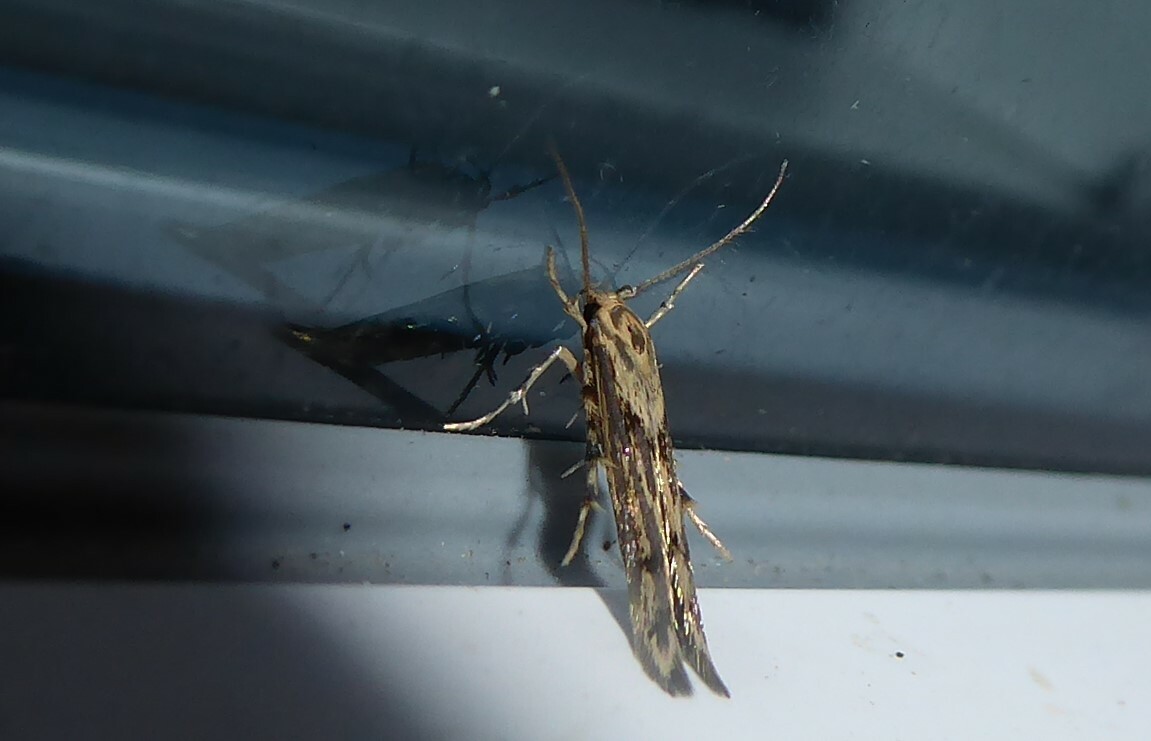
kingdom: Animalia
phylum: Arthropoda
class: Insecta
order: Lepidoptera
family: Stathmopodidae
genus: Stathmopoda
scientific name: Stathmopoda plumbiflua
